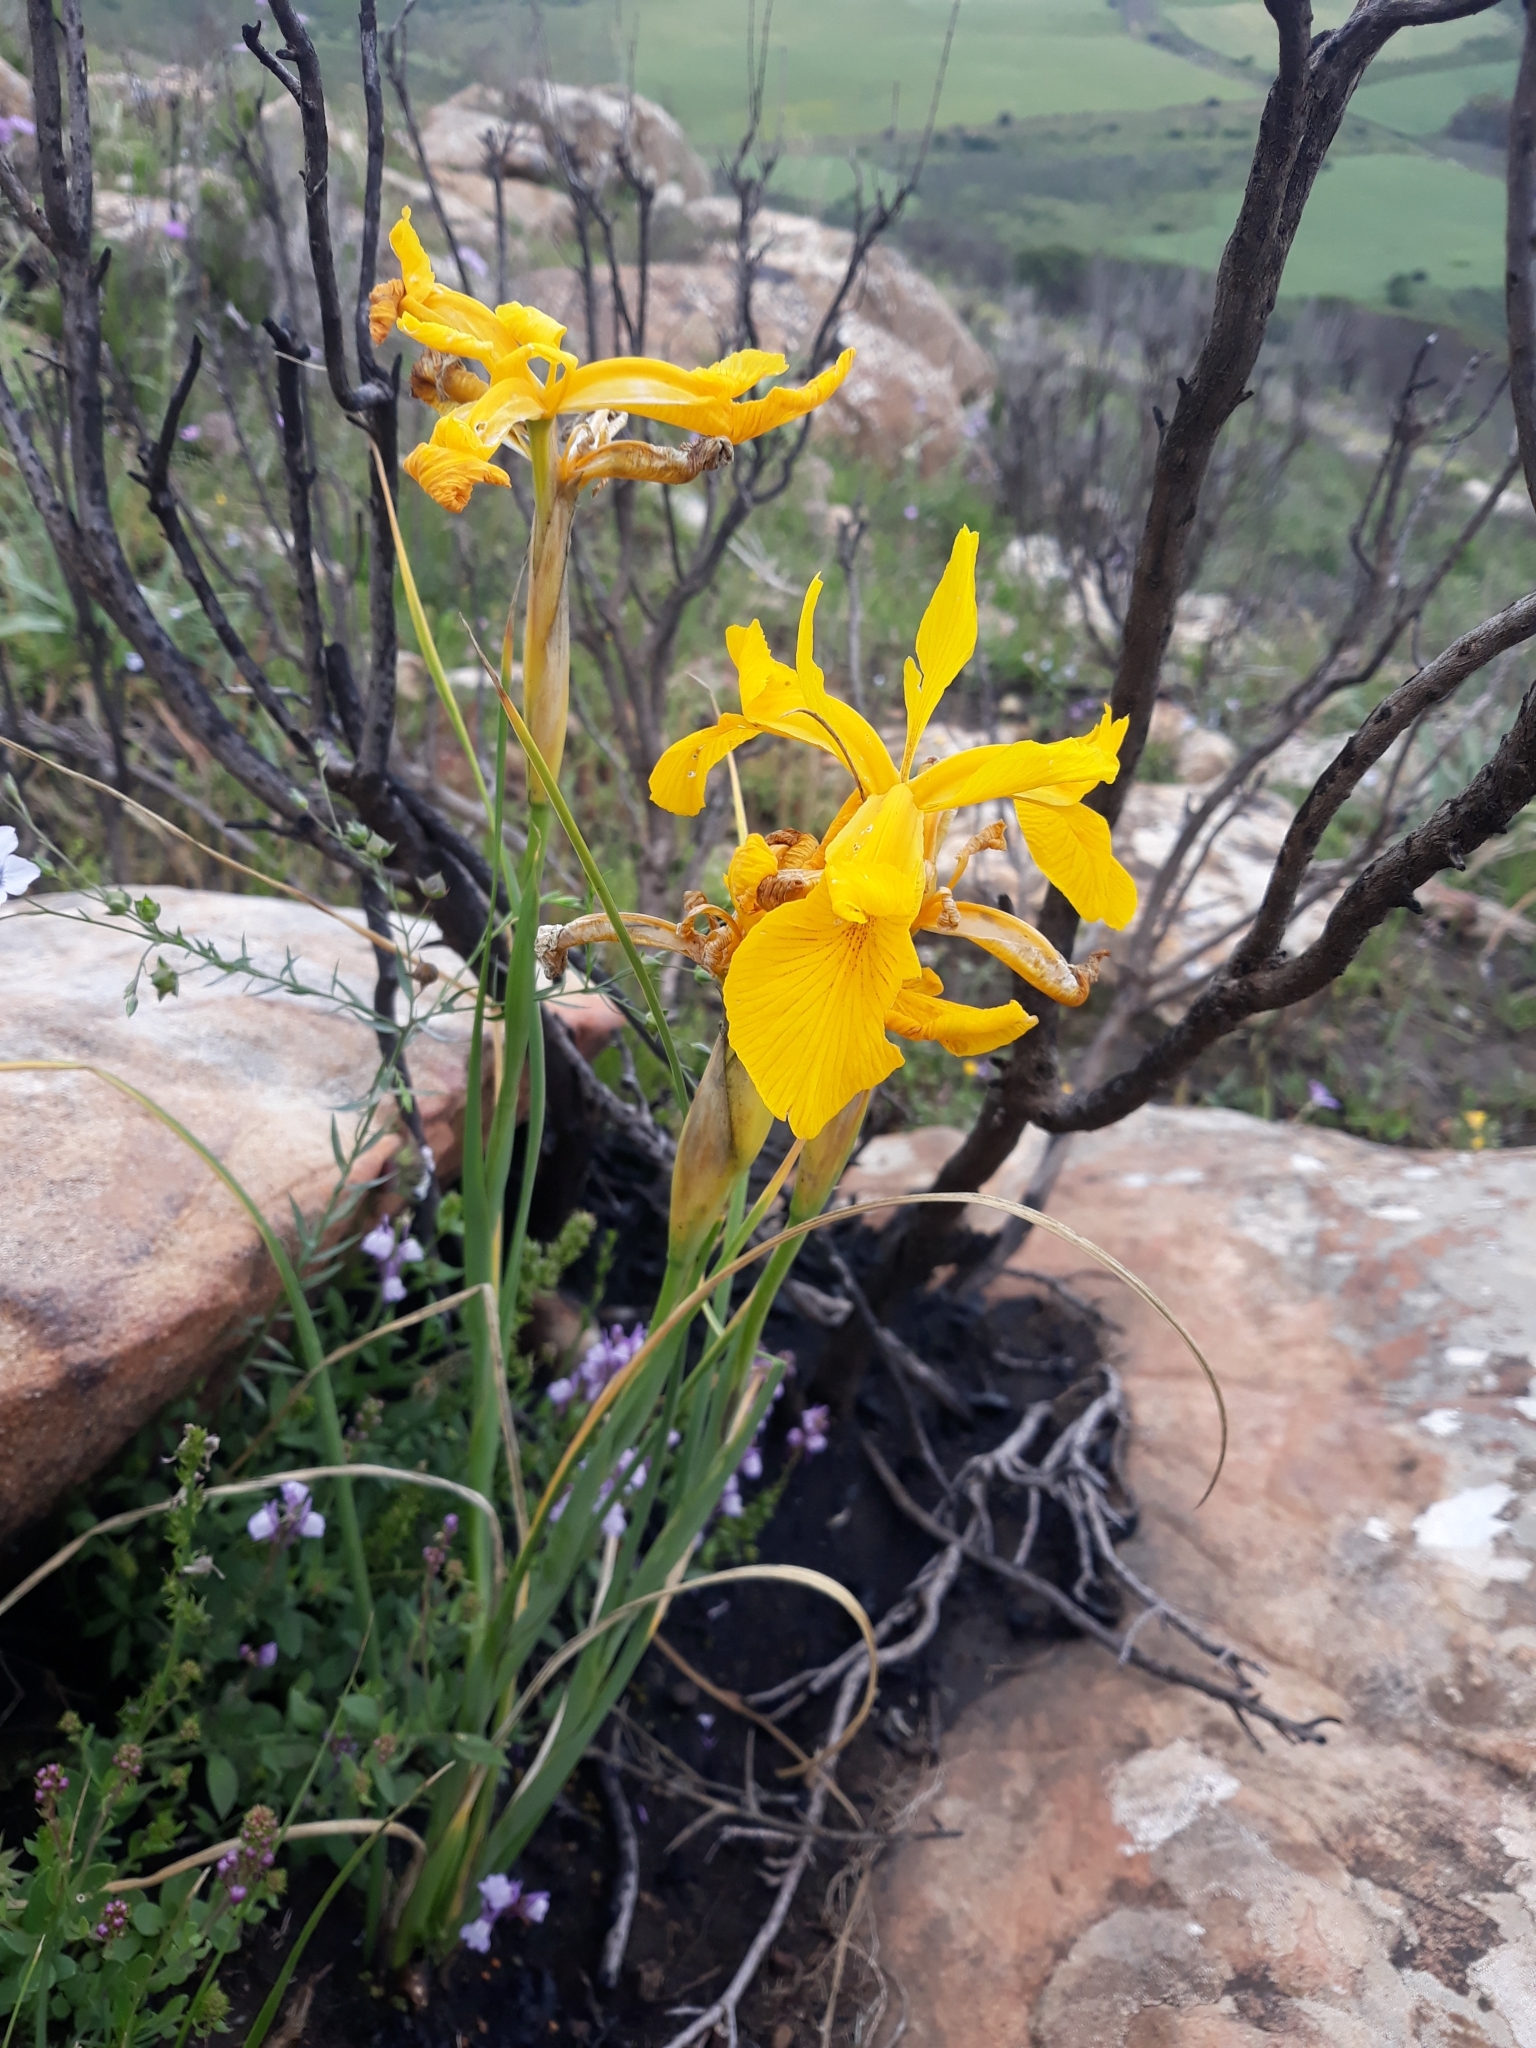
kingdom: Plantae
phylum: Tracheophyta
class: Liliopsida
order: Asparagales
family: Iridaceae
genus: Iris
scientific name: Iris juncea
